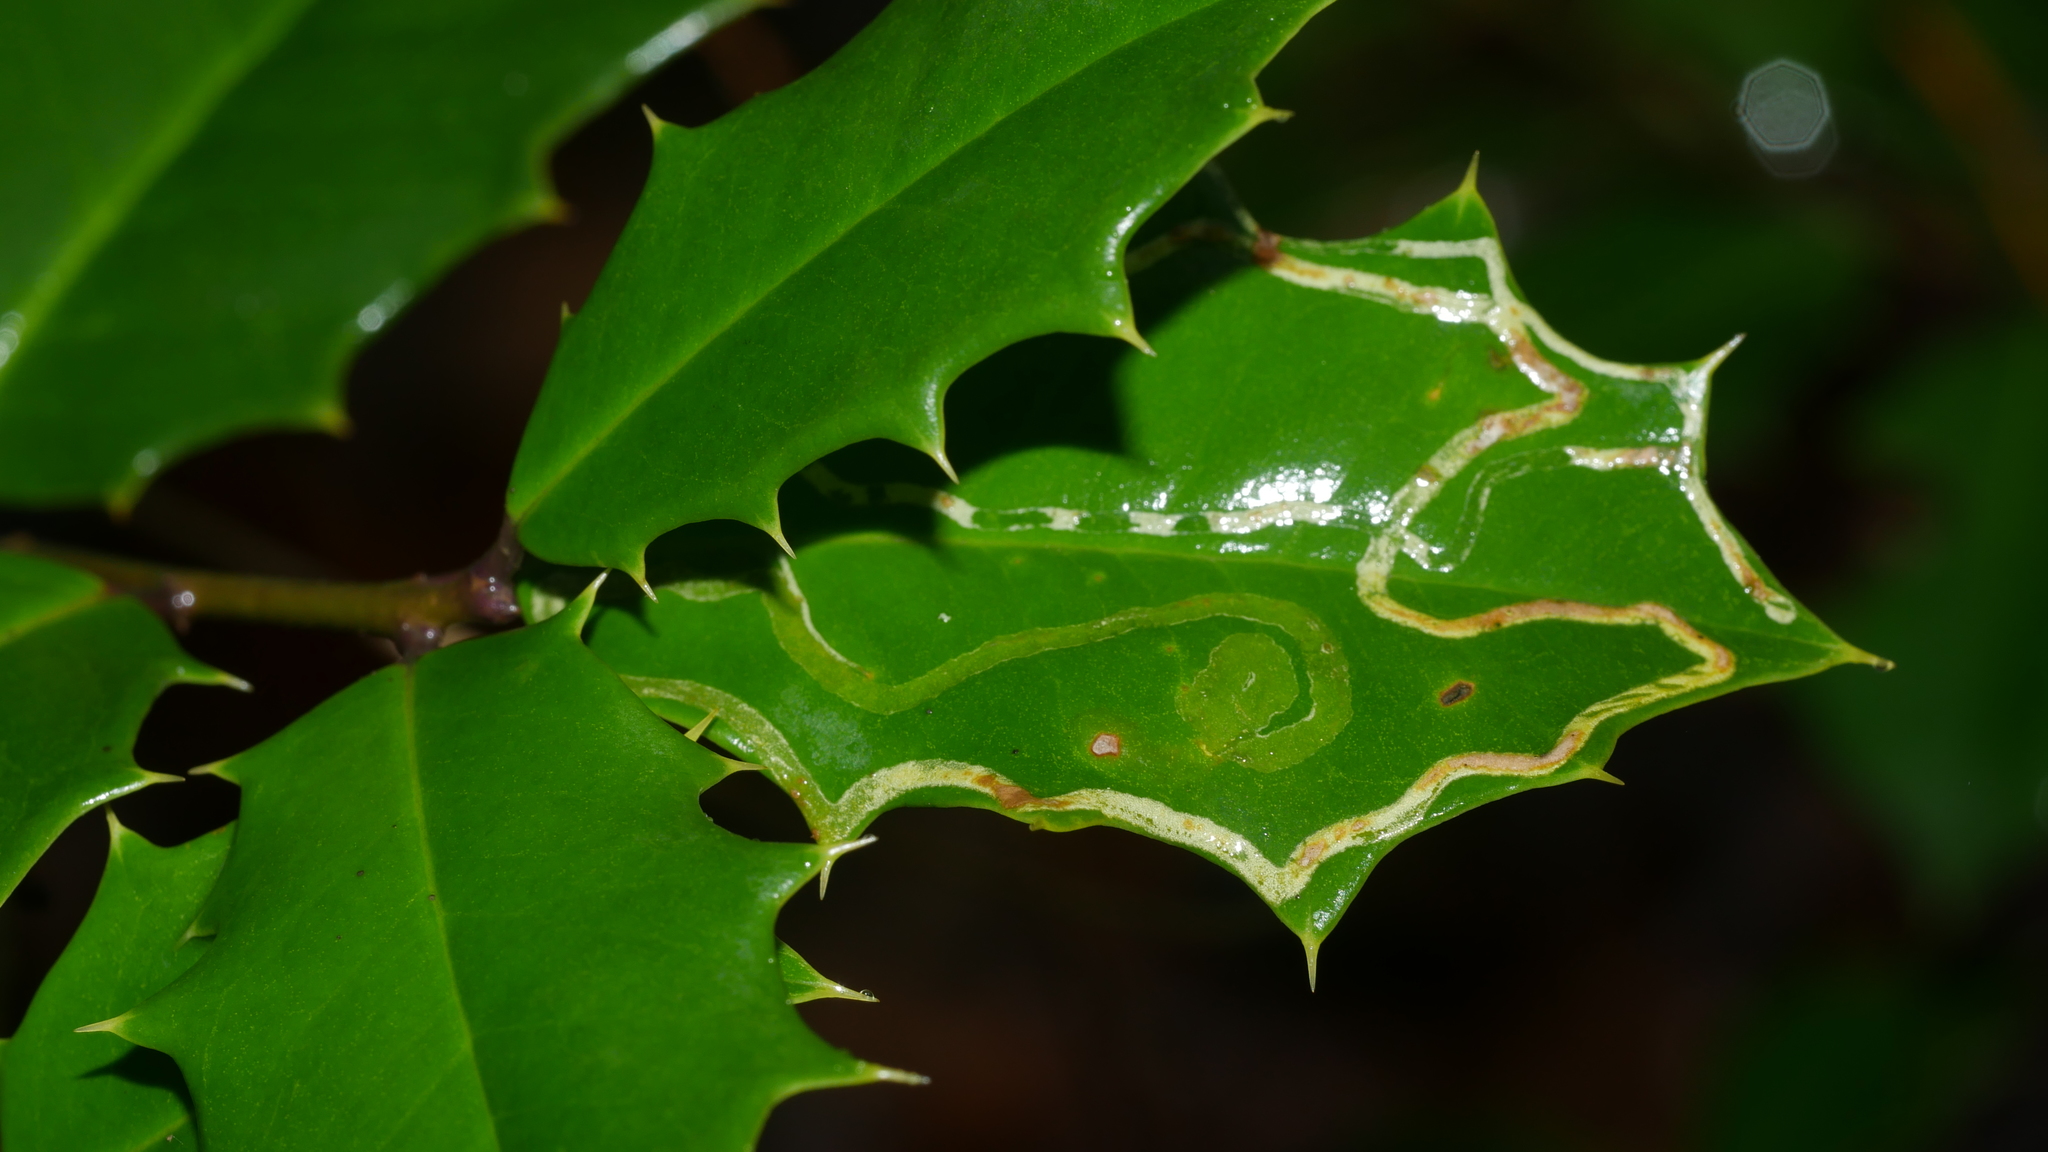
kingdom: Animalia
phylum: Arthropoda
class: Insecta
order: Diptera
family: Agromyzidae
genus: Phytomyza
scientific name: Phytomyza opacae
